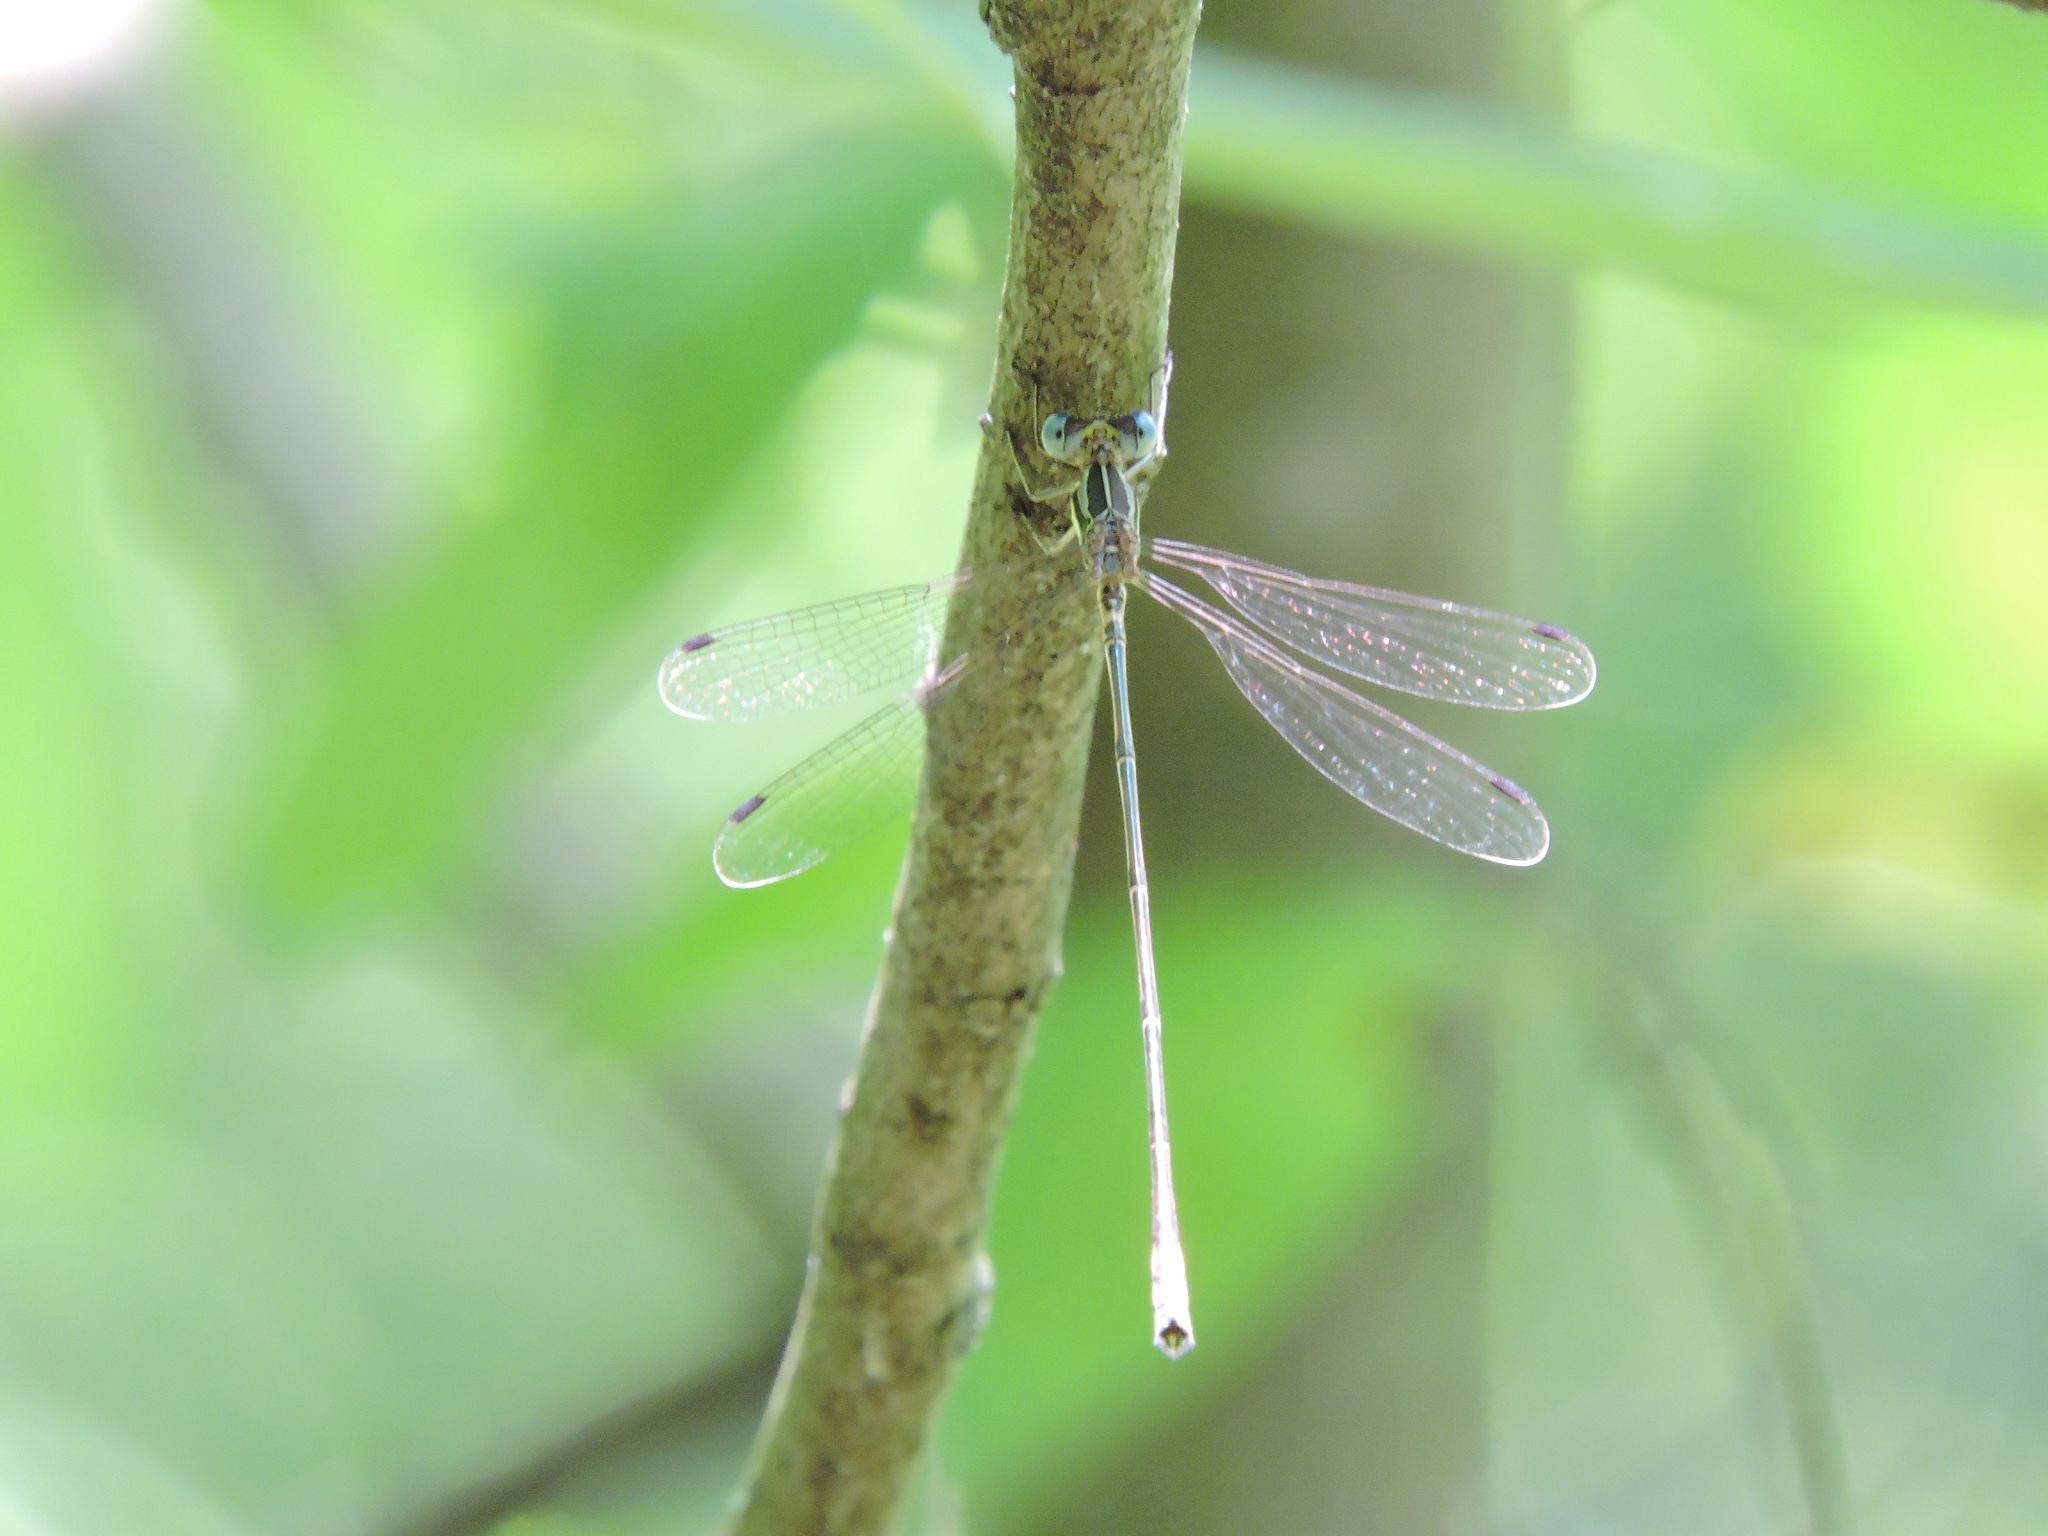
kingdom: Animalia
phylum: Arthropoda
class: Insecta
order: Odonata
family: Lestidae
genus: Lestes
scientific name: Lestes rectangularis
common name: Slender spreadwing
